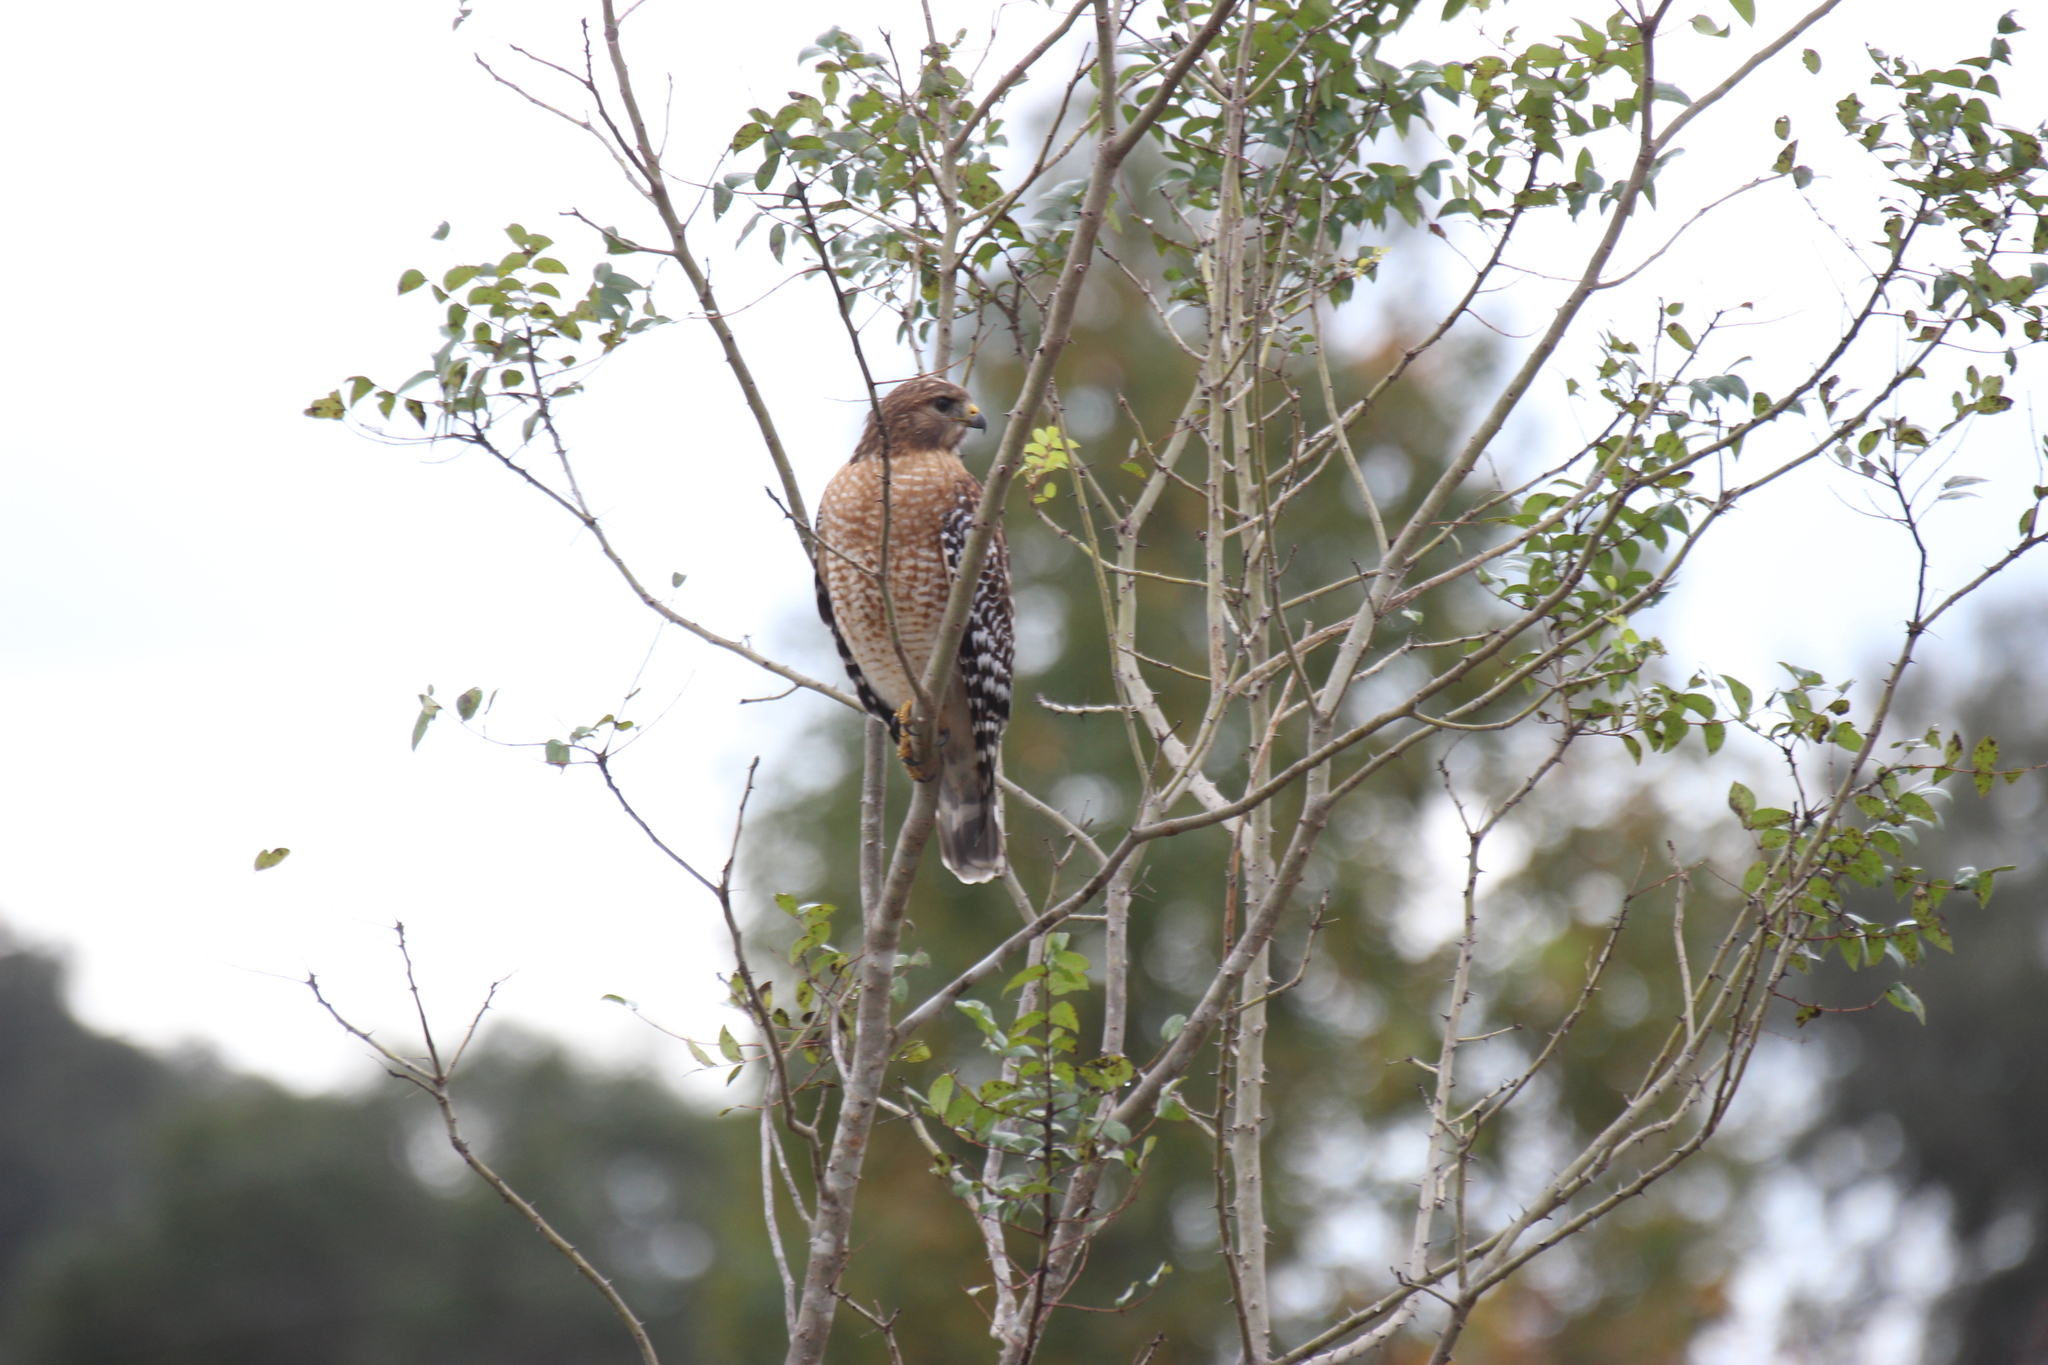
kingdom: Animalia
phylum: Chordata
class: Aves
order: Accipitriformes
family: Accipitridae
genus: Buteo
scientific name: Buteo lineatus
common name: Red-shouldered hawk
